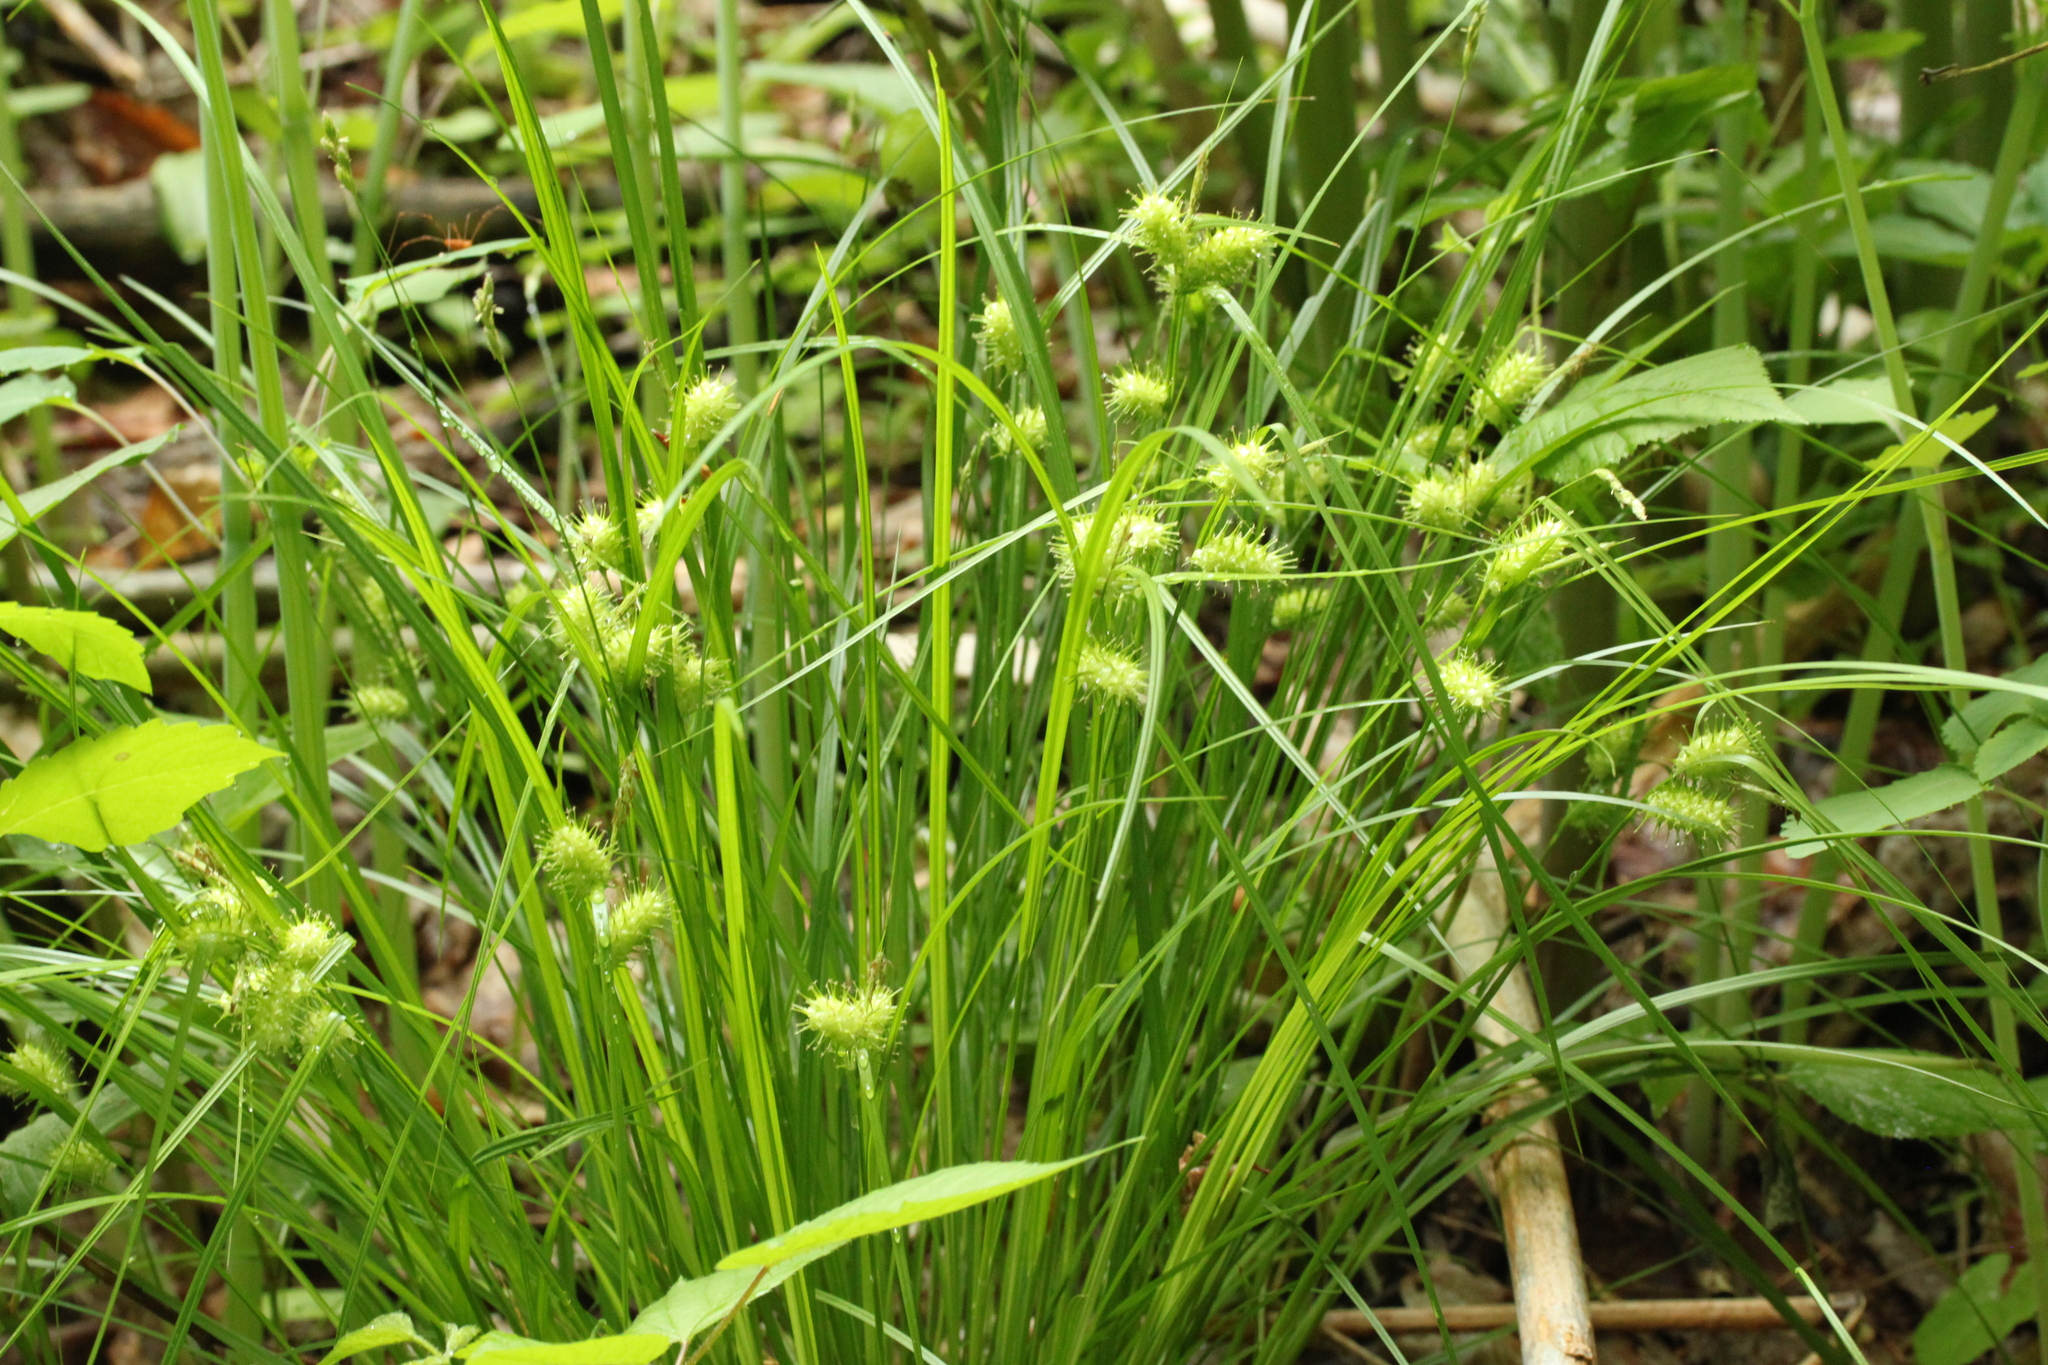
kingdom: Plantae
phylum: Tracheophyta
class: Liliopsida
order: Poales
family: Cyperaceae
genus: Carex
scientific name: Carex lurida
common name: Sallow sedge
